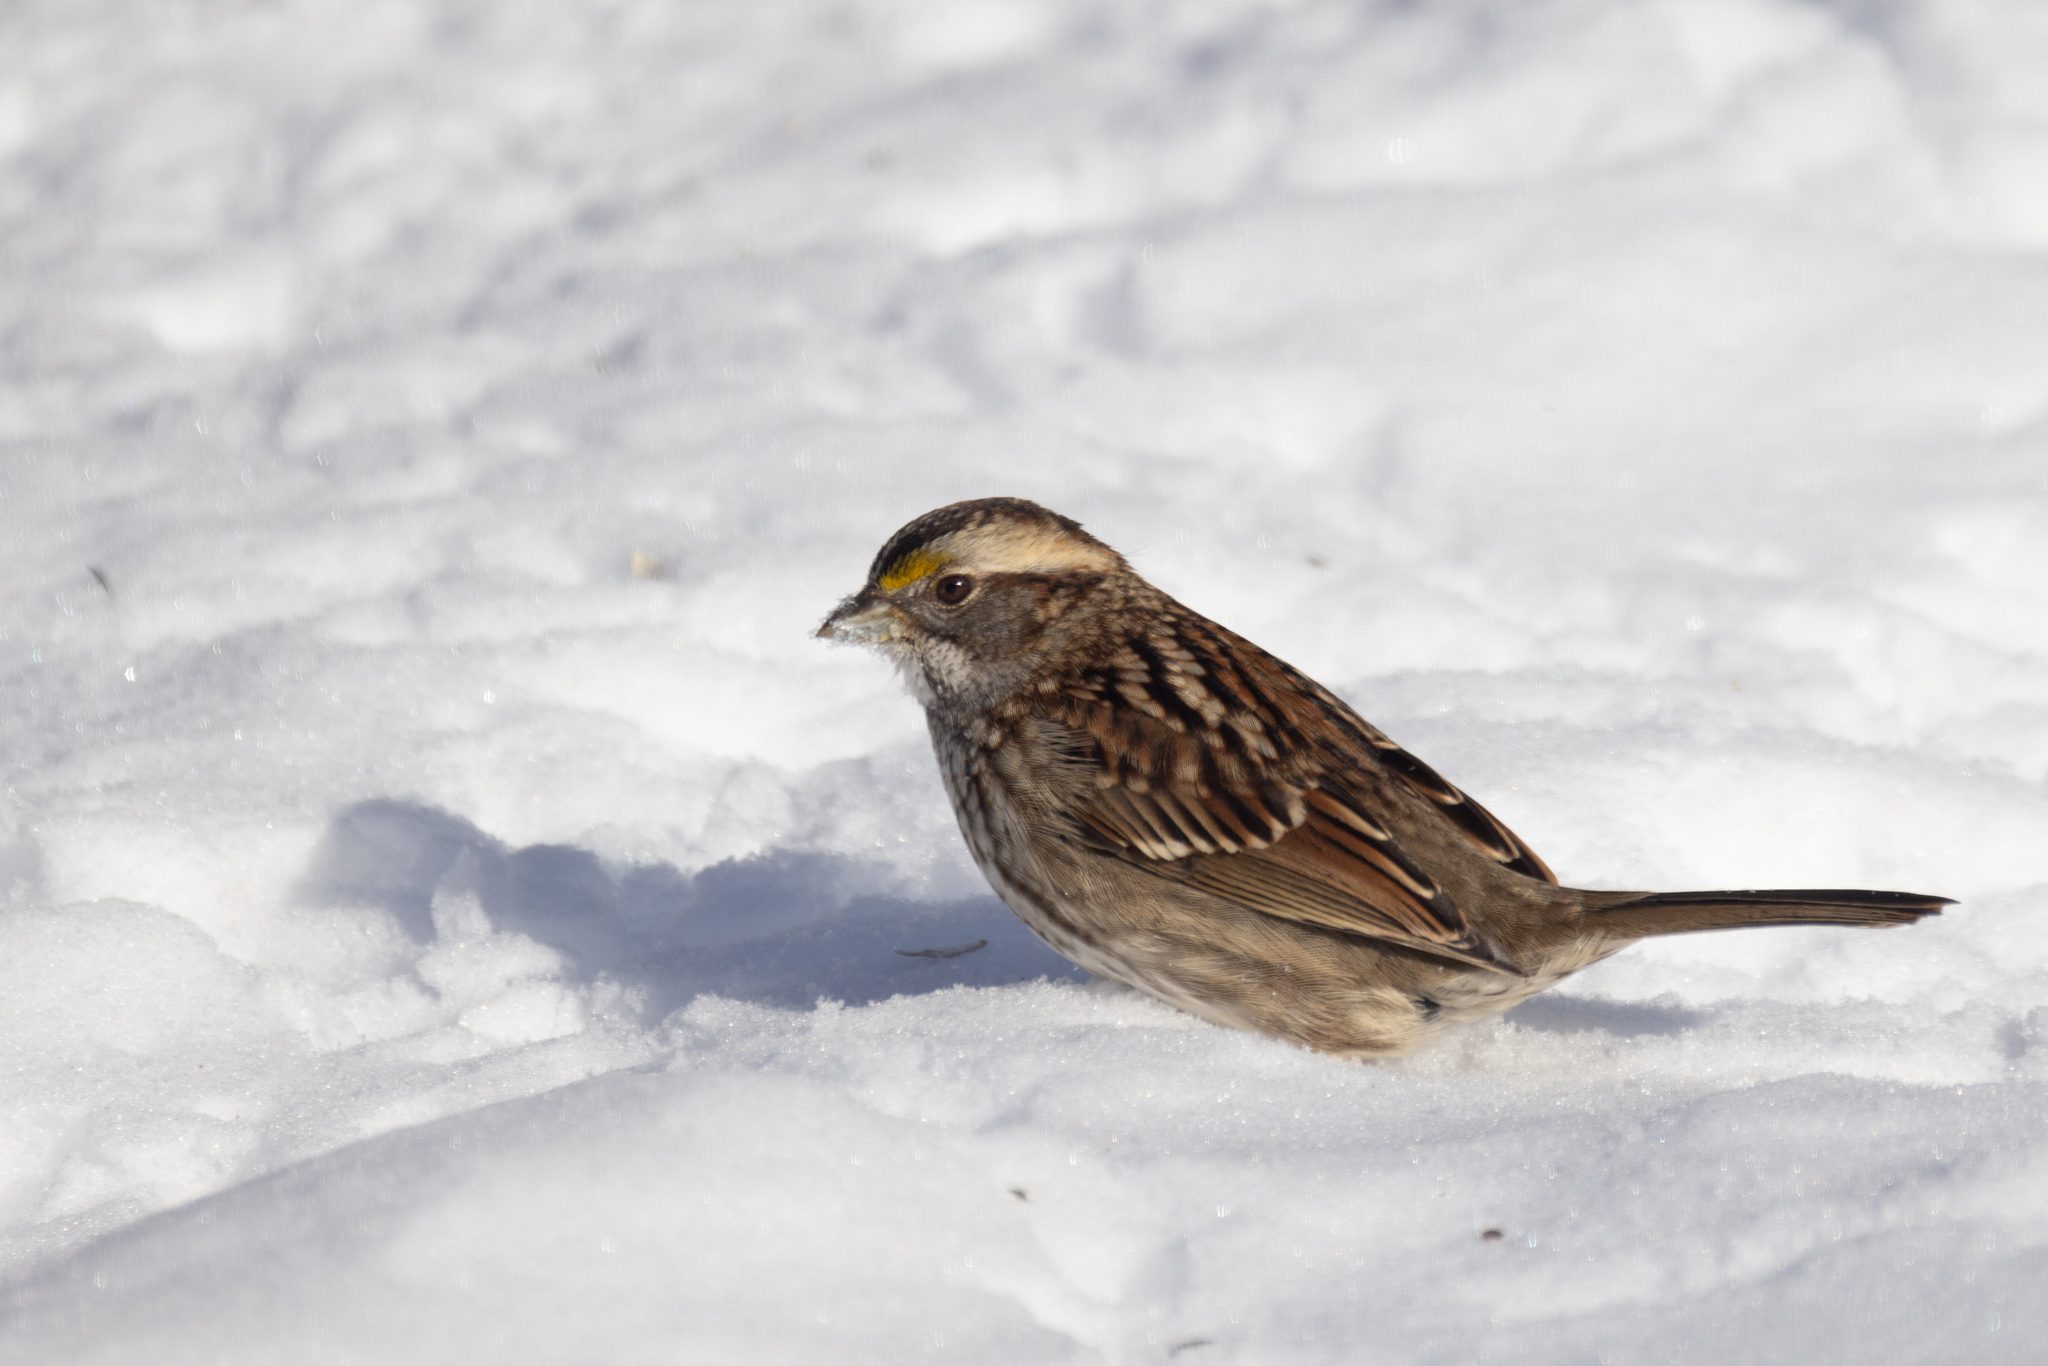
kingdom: Animalia
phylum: Chordata
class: Aves
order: Passeriformes
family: Passerellidae
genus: Zonotrichia
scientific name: Zonotrichia albicollis
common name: White-throated sparrow
